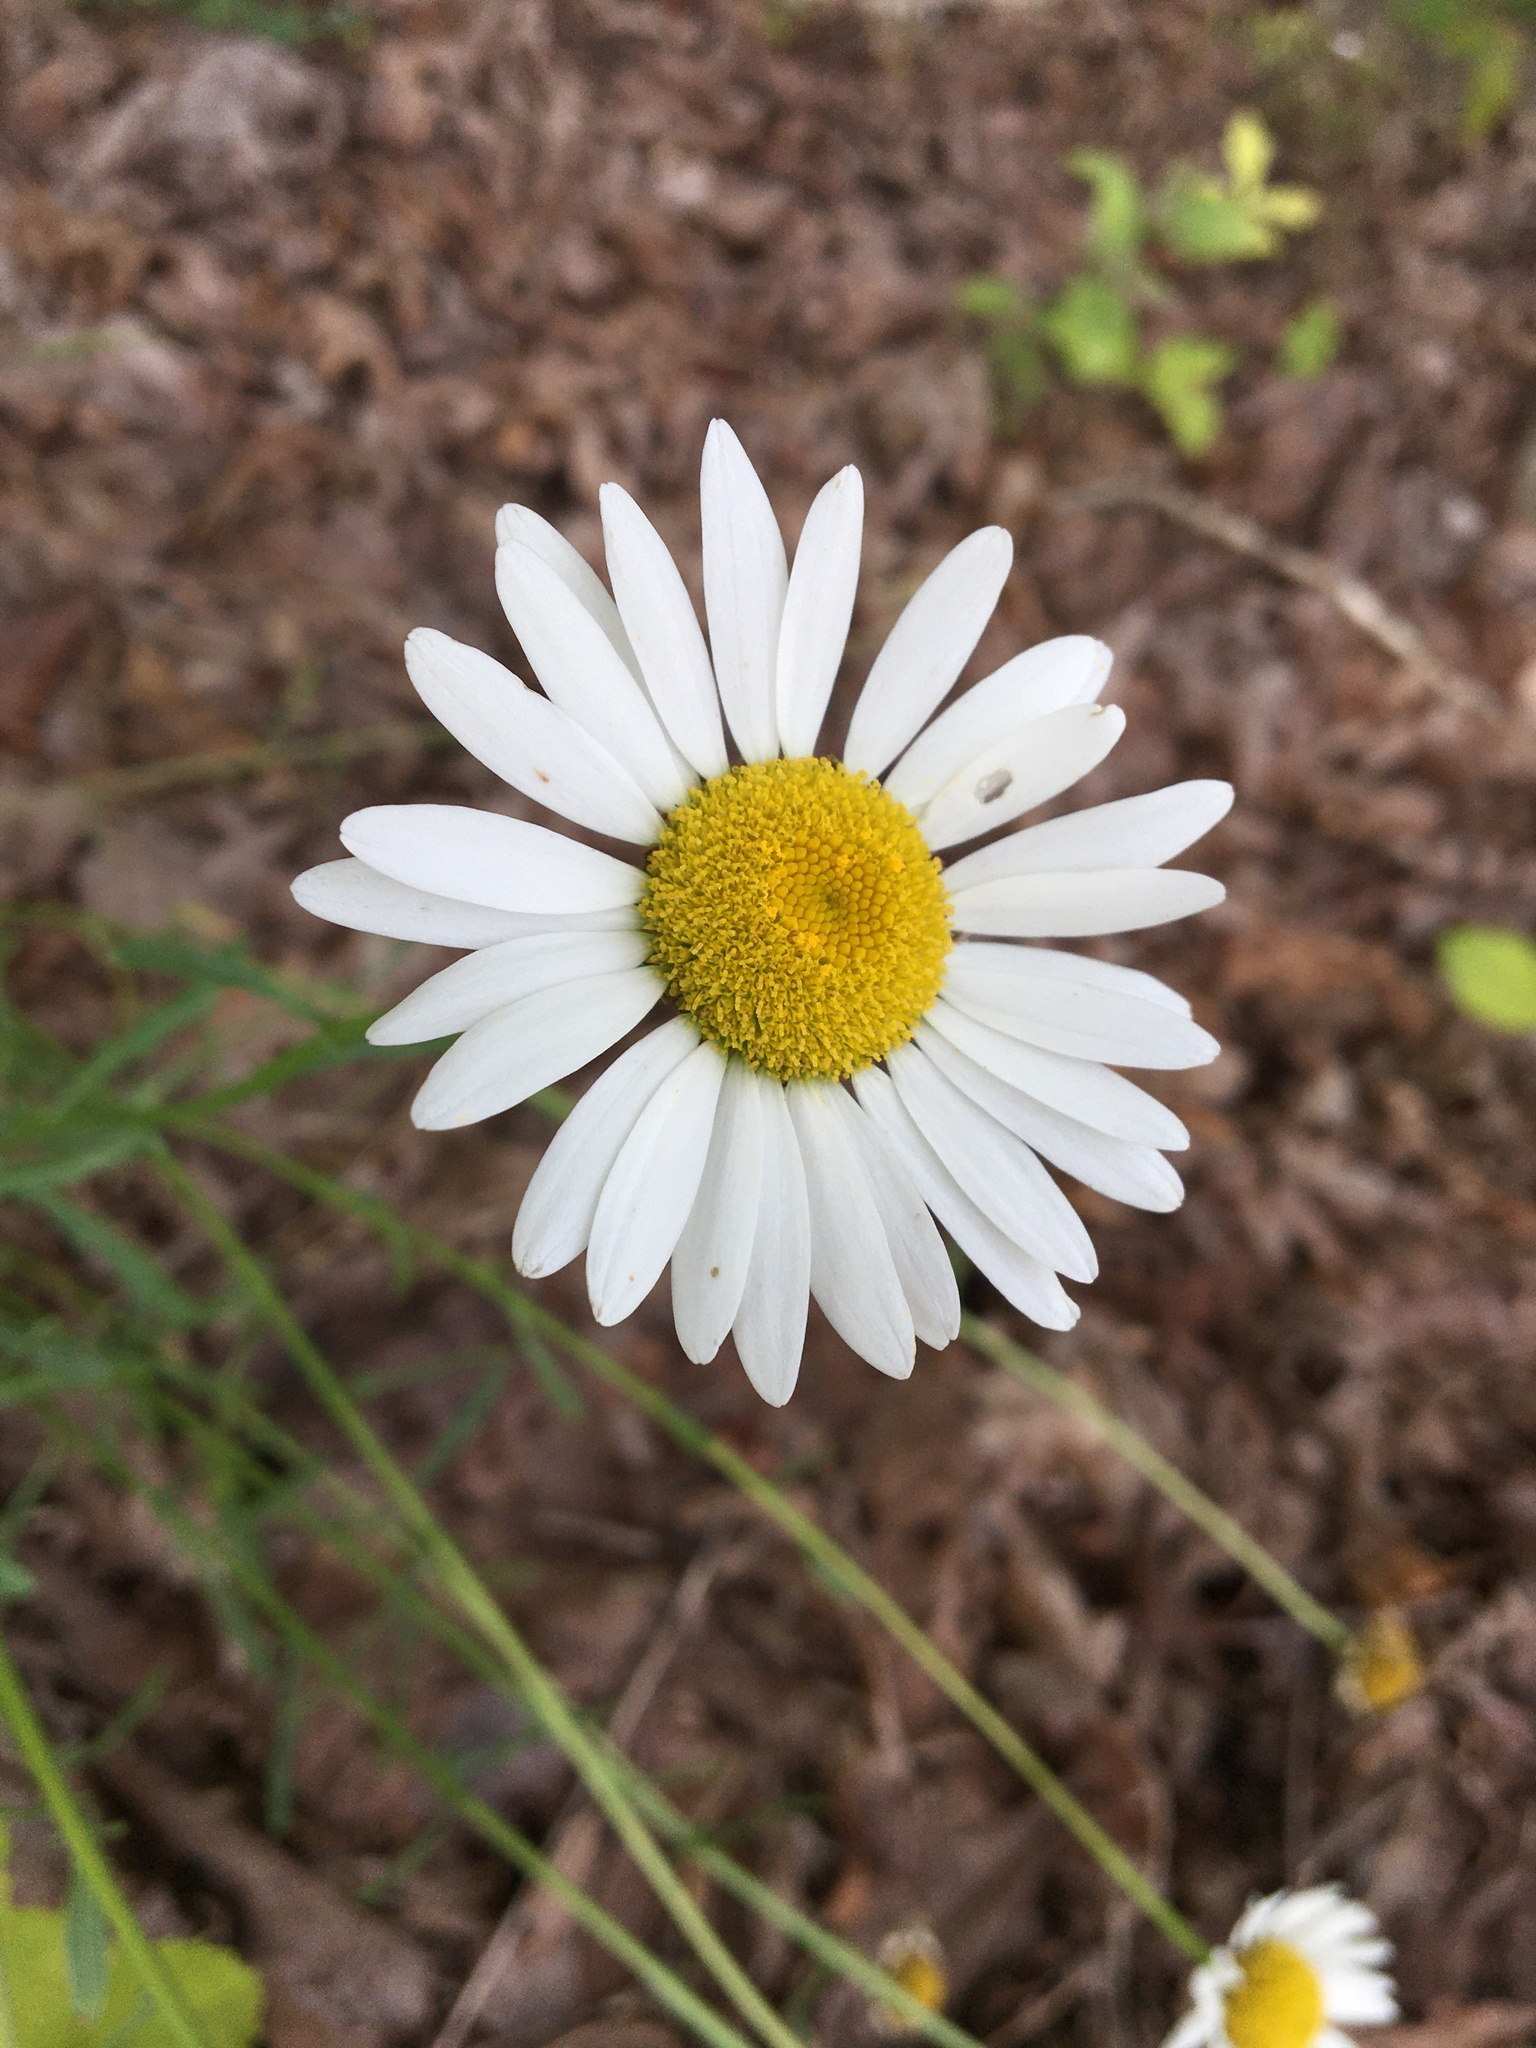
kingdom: Plantae
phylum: Tracheophyta
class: Magnoliopsida
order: Asterales
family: Asteraceae
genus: Leucanthemum
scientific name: Leucanthemum vulgare
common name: Oxeye daisy
